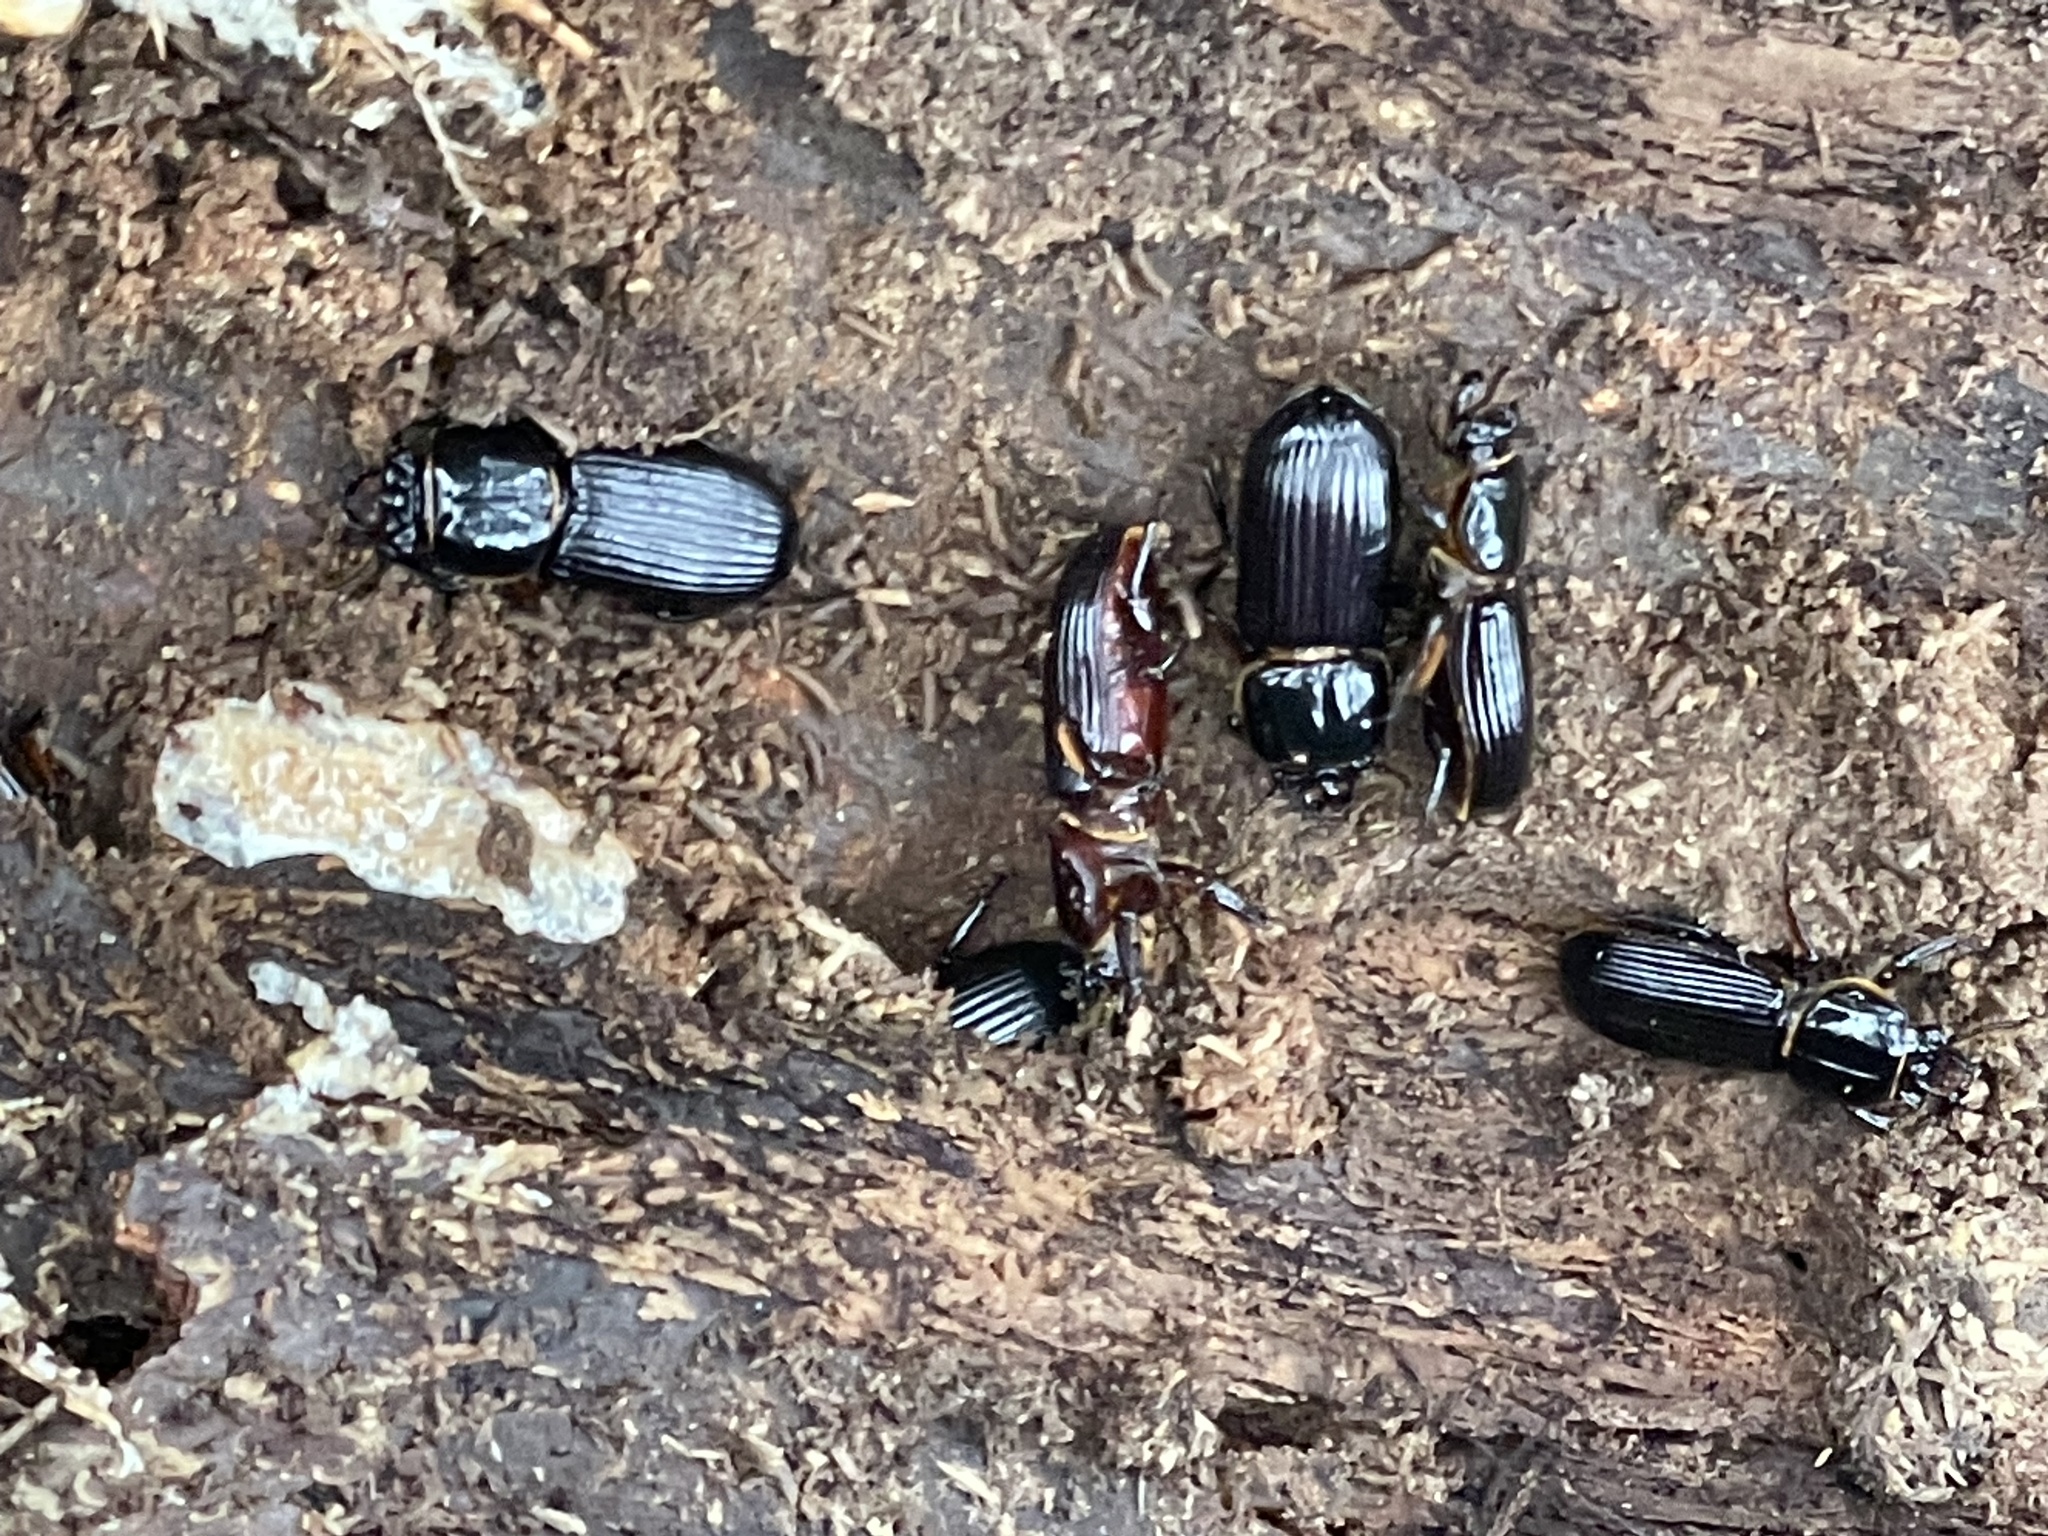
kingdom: Animalia
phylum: Arthropoda
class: Insecta
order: Coleoptera
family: Passalidae
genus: Odontotaenius
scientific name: Odontotaenius disjunctus
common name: Patent leather beetle
